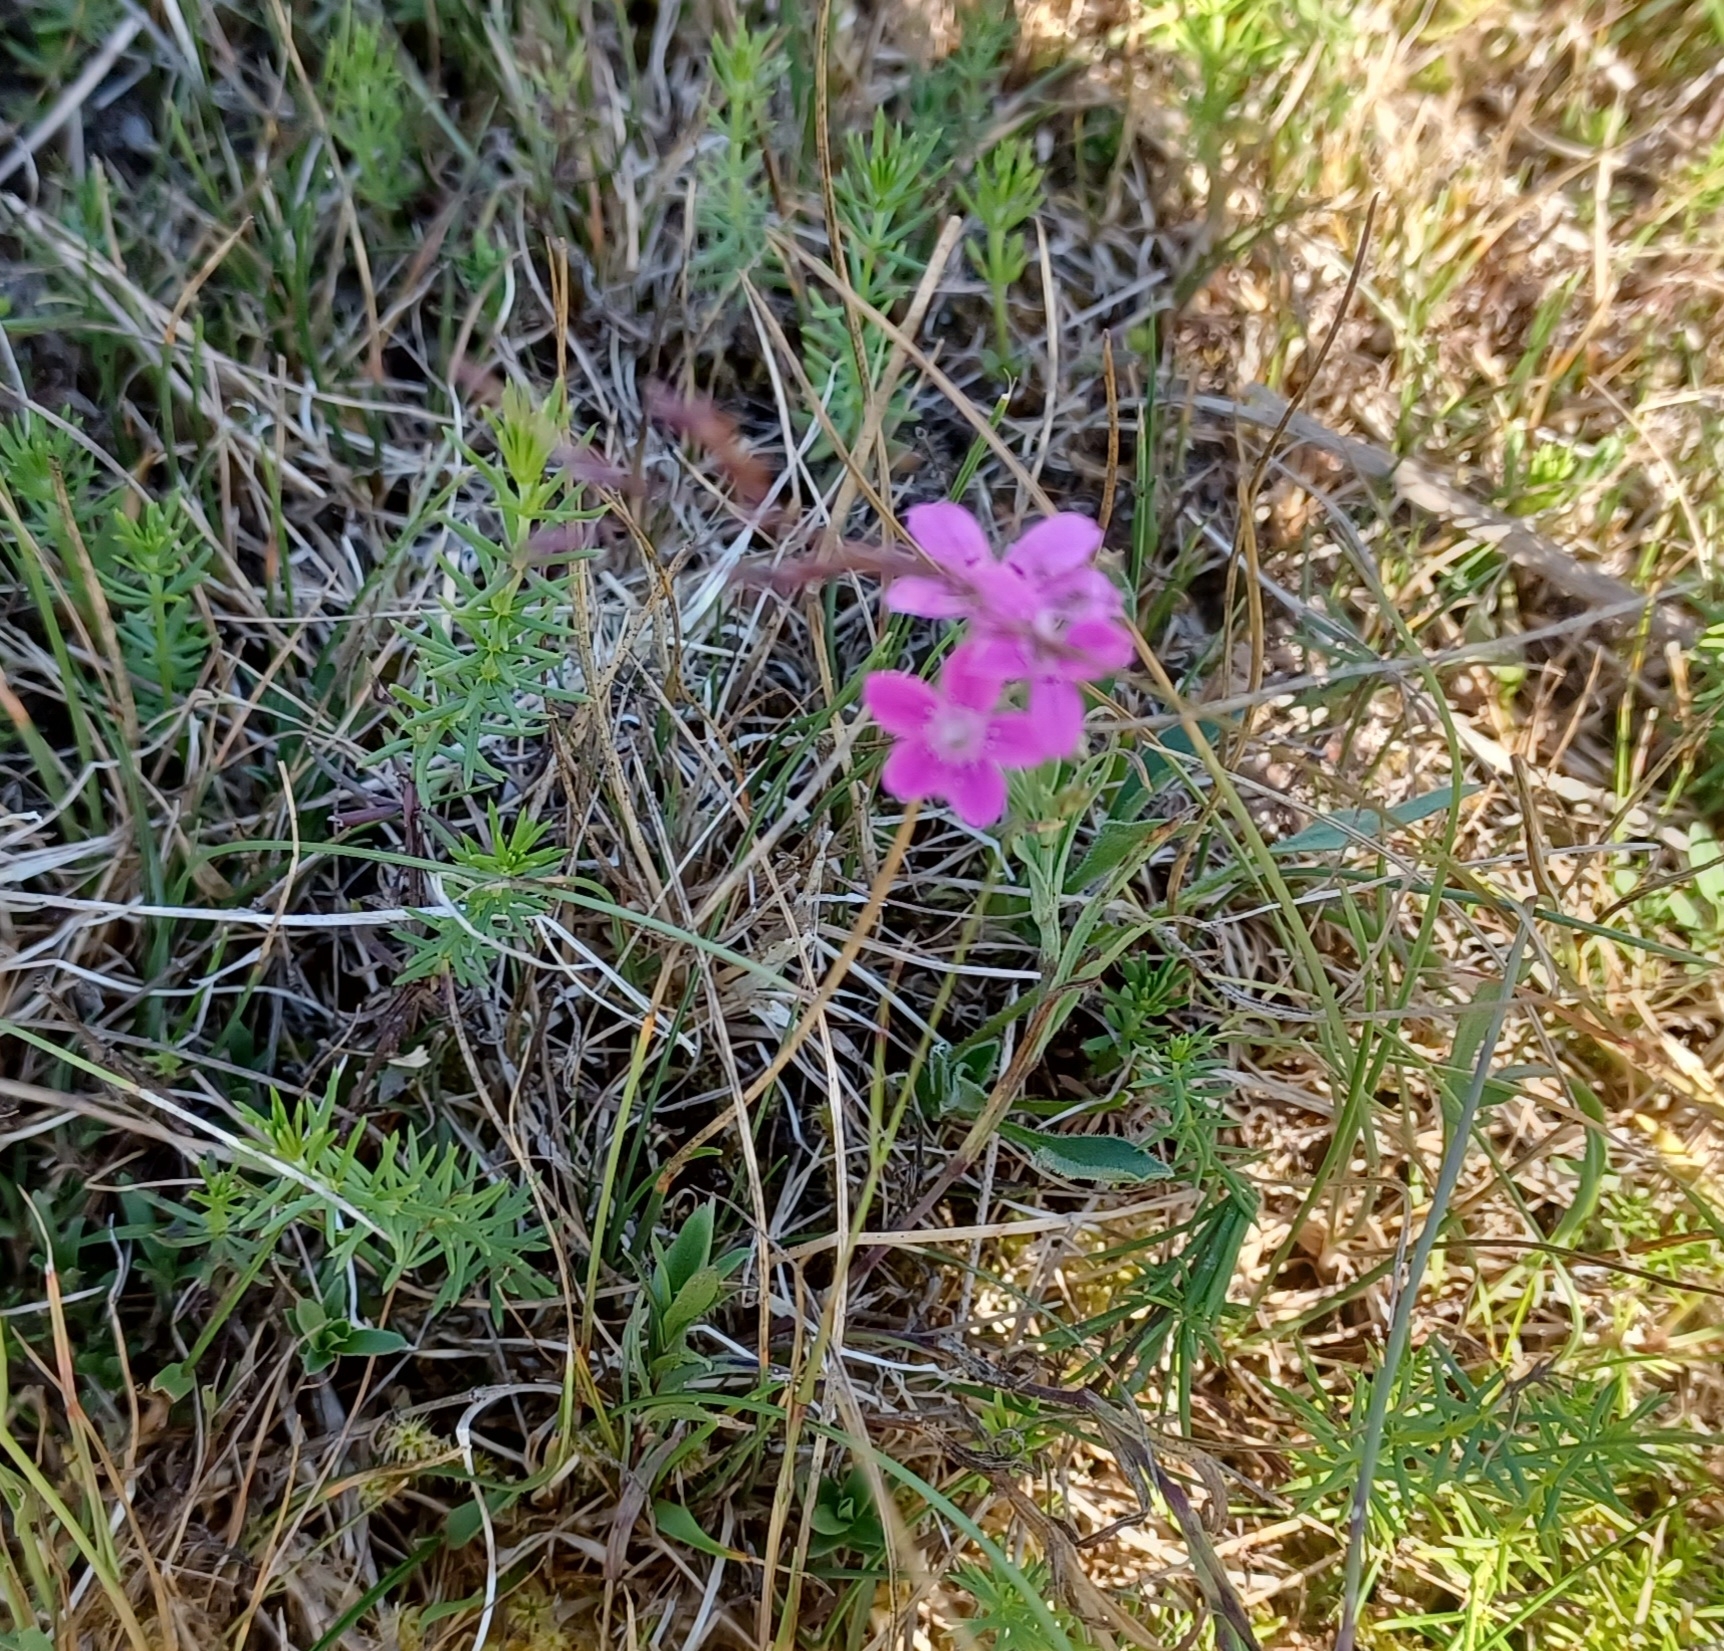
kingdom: Plantae
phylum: Tracheophyta
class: Magnoliopsida
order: Caryophyllales
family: Caryophyllaceae
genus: Dianthus
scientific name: Dianthus deltoides
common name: Maiden pink
